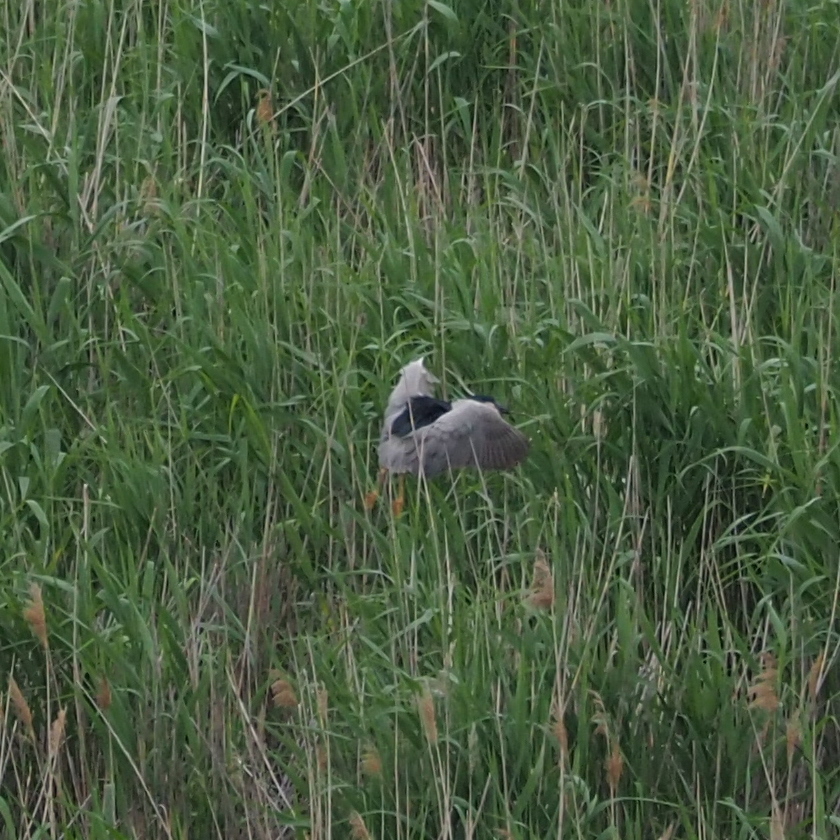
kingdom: Animalia
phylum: Chordata
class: Aves
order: Pelecaniformes
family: Ardeidae
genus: Nycticorax
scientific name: Nycticorax nycticorax
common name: Black-crowned night heron
